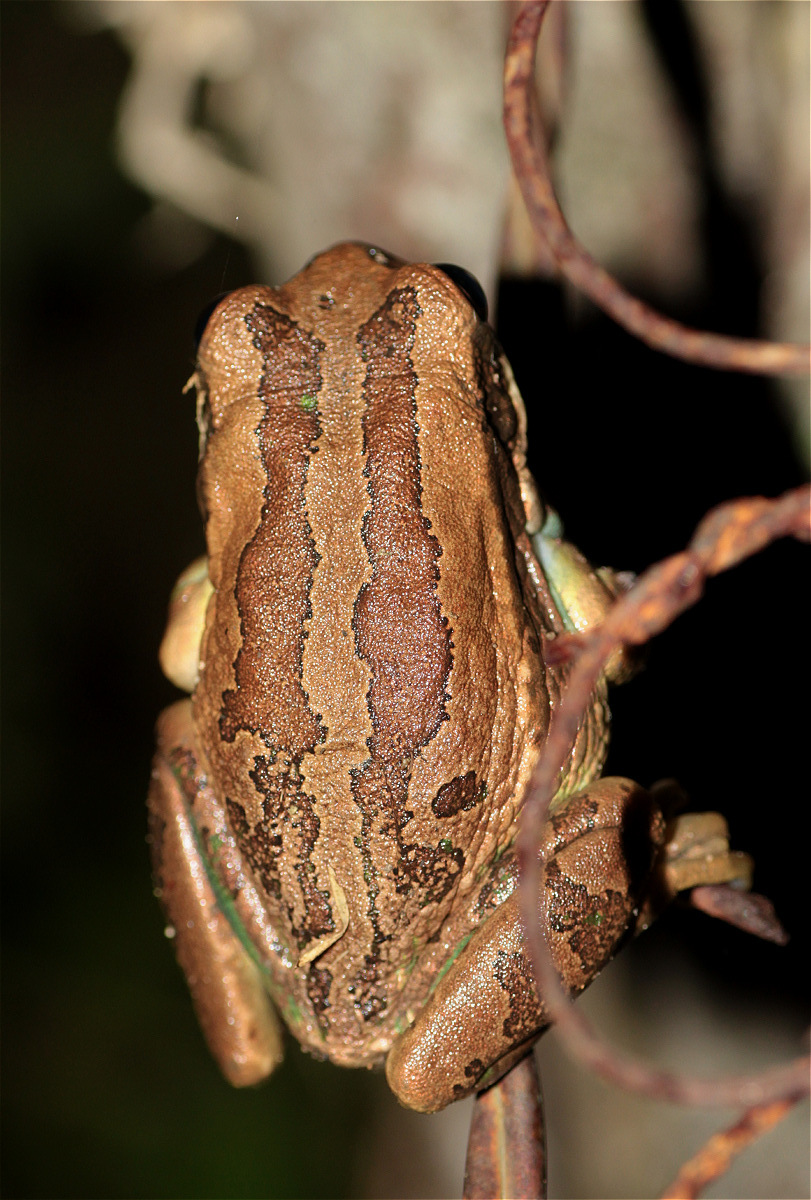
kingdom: Animalia
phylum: Chordata
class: Amphibia
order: Anura
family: Hemiphractidae
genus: Gastrotheca
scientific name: Gastrotheca cuencana
